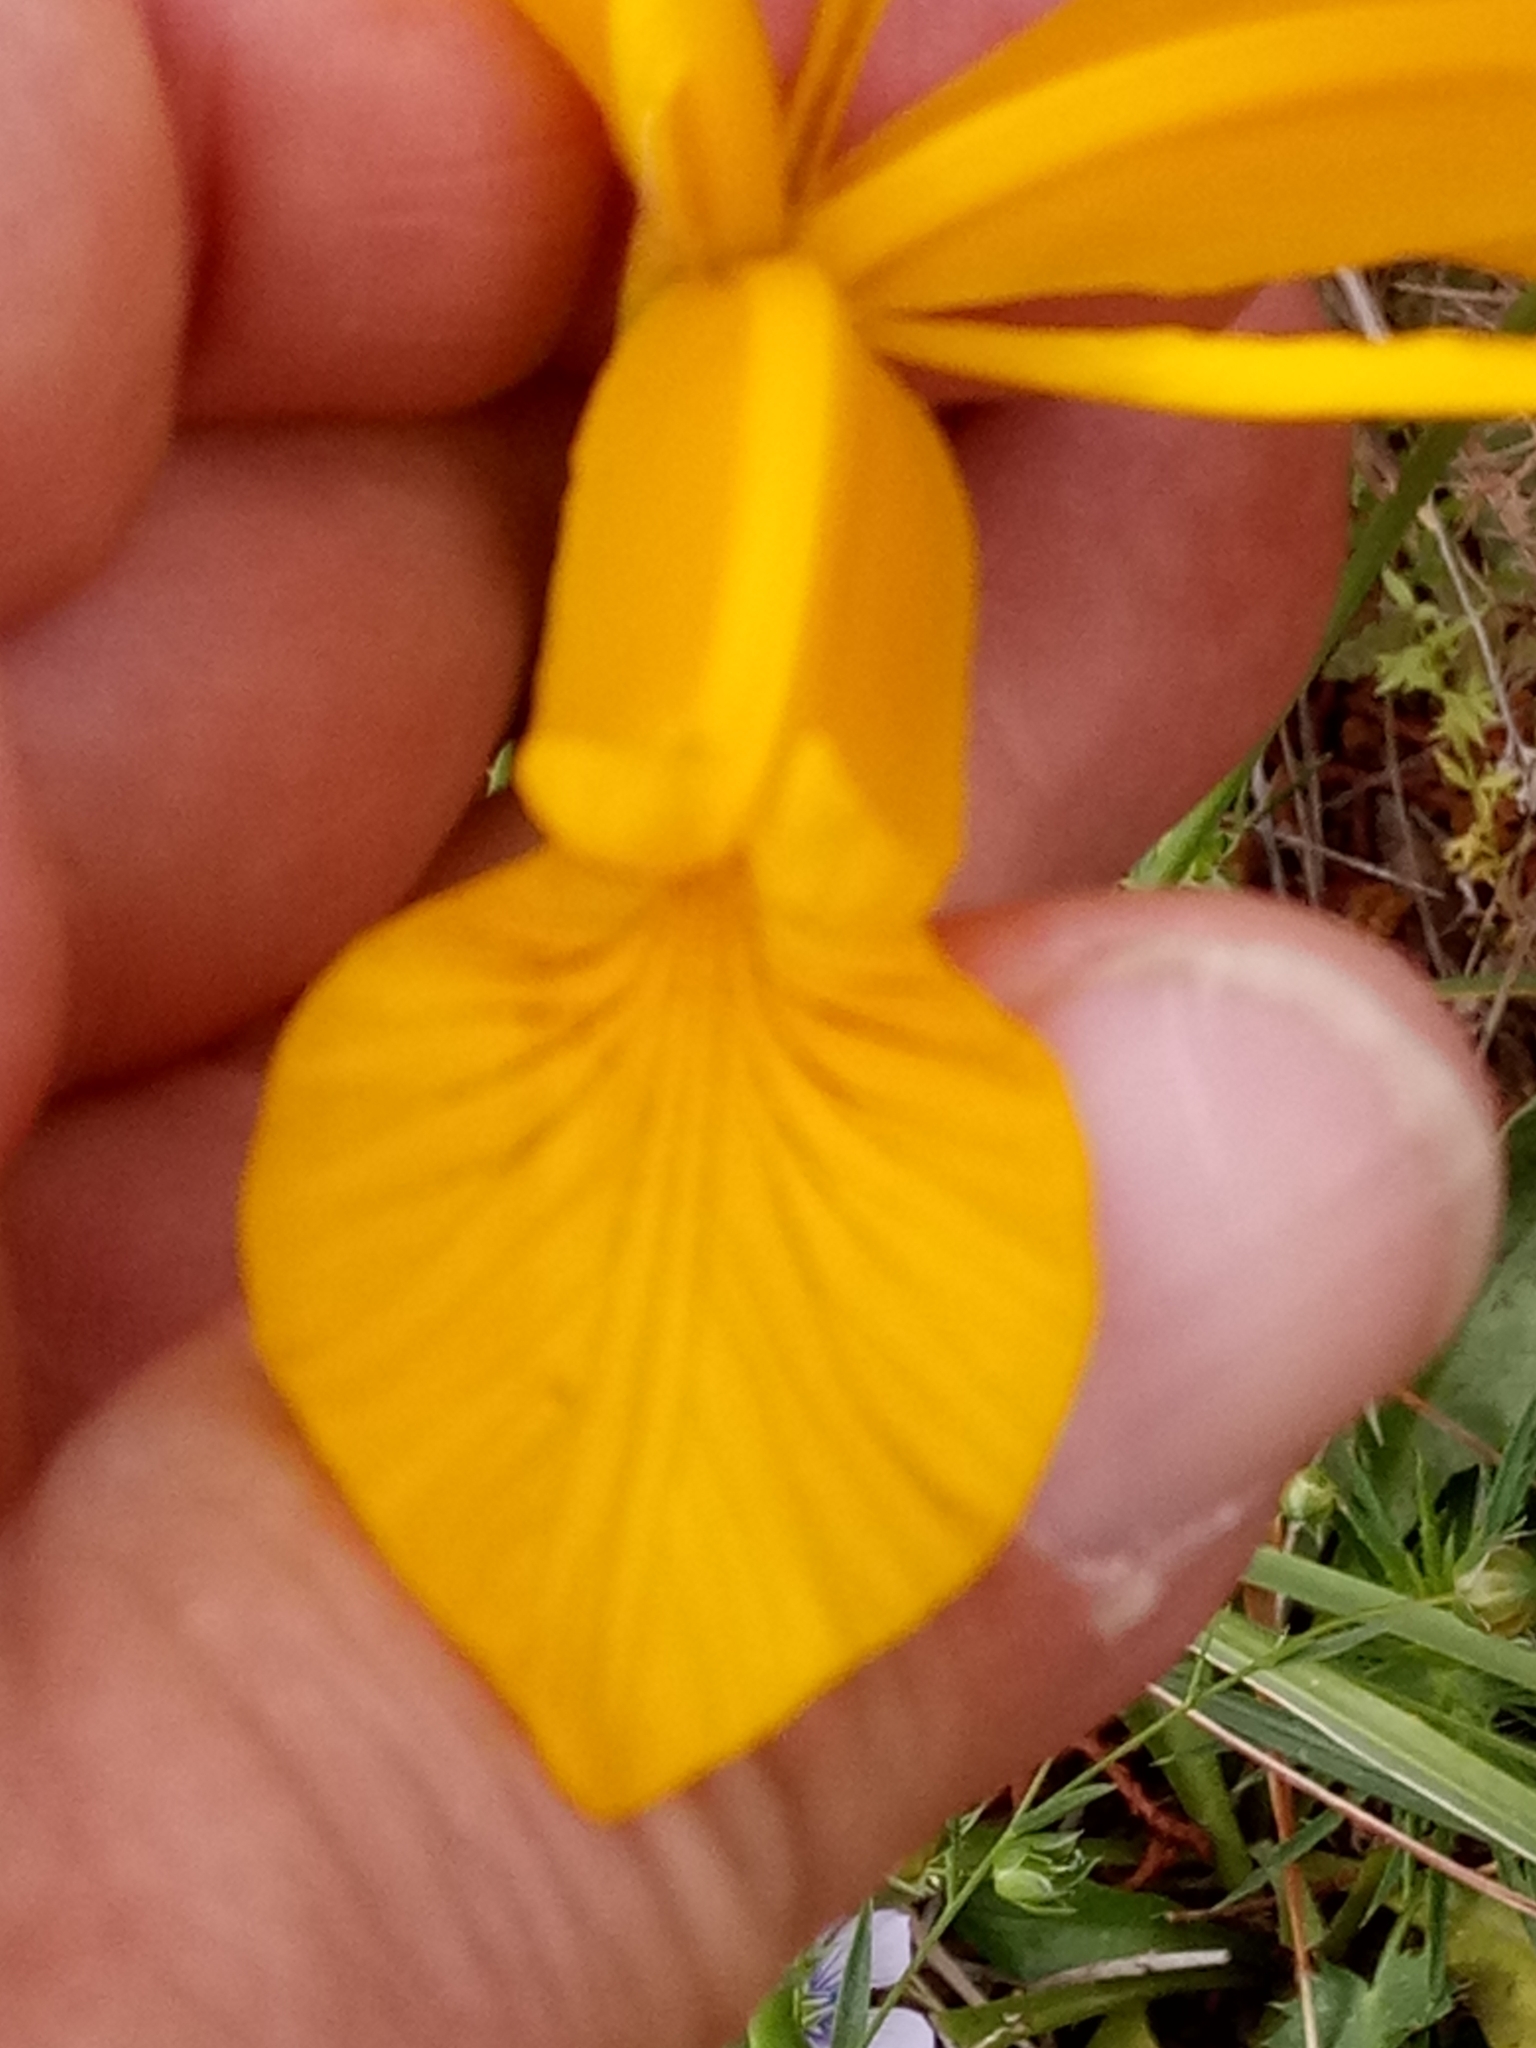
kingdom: Plantae
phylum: Tracheophyta
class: Liliopsida
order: Asparagales
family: Iridaceae
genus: Iris
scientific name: Iris juncea
